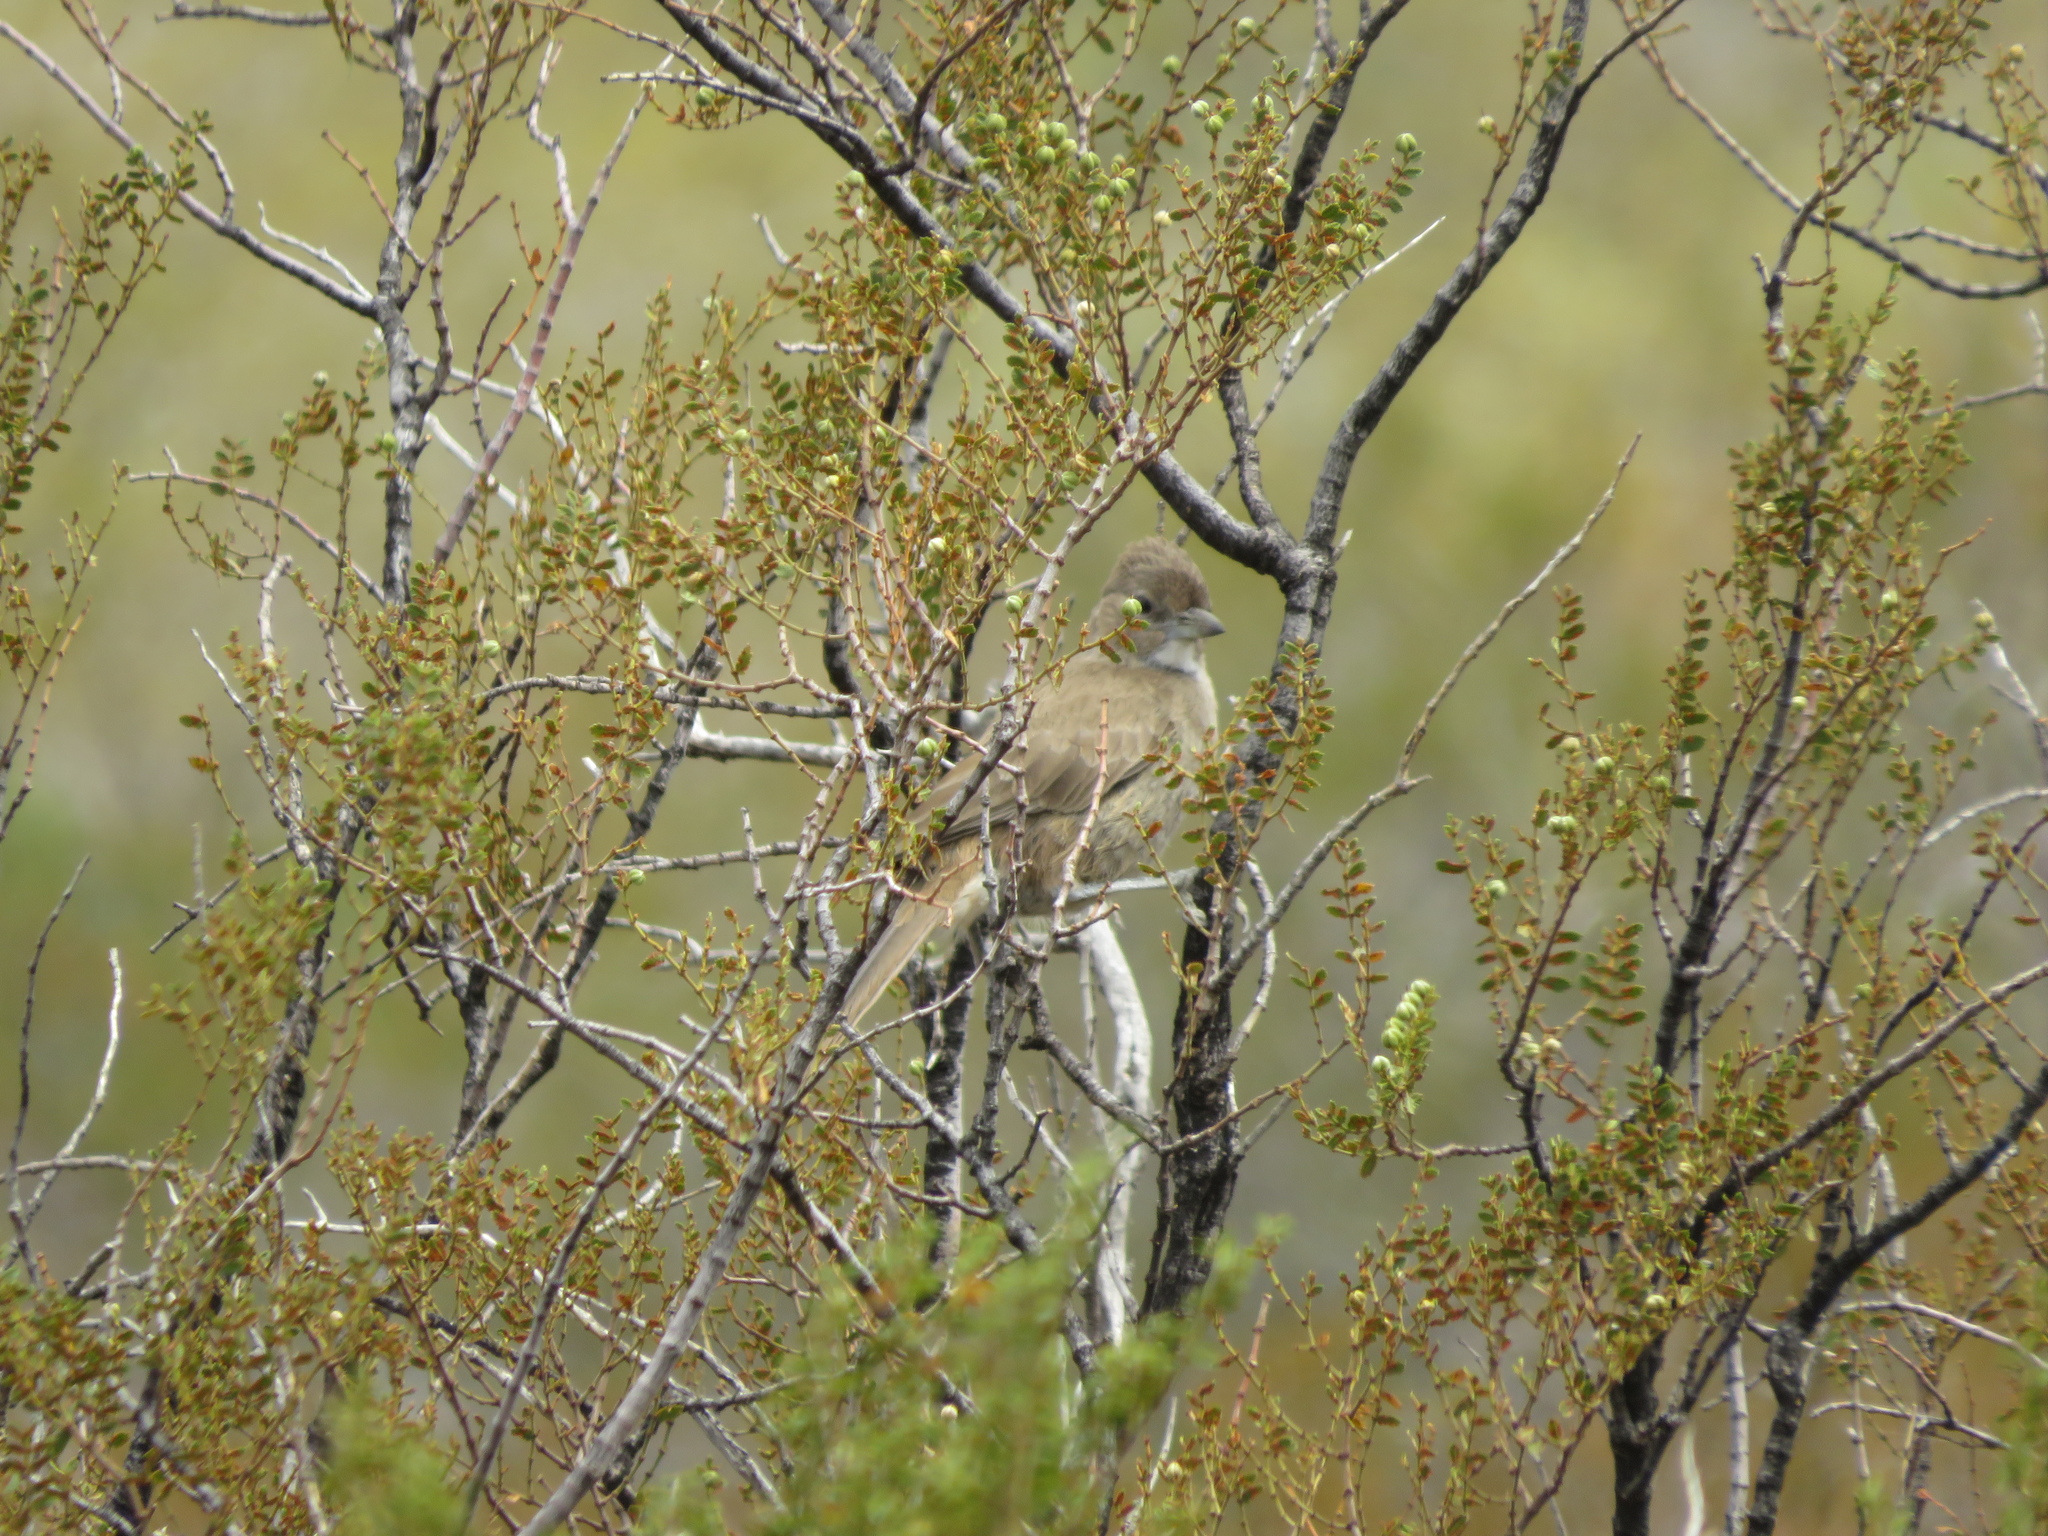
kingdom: Animalia
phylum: Chordata
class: Aves
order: Passeriformes
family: Furnariidae
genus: Pseudoseisura
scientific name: Pseudoseisura gutturalis
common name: White-throated cacholote
